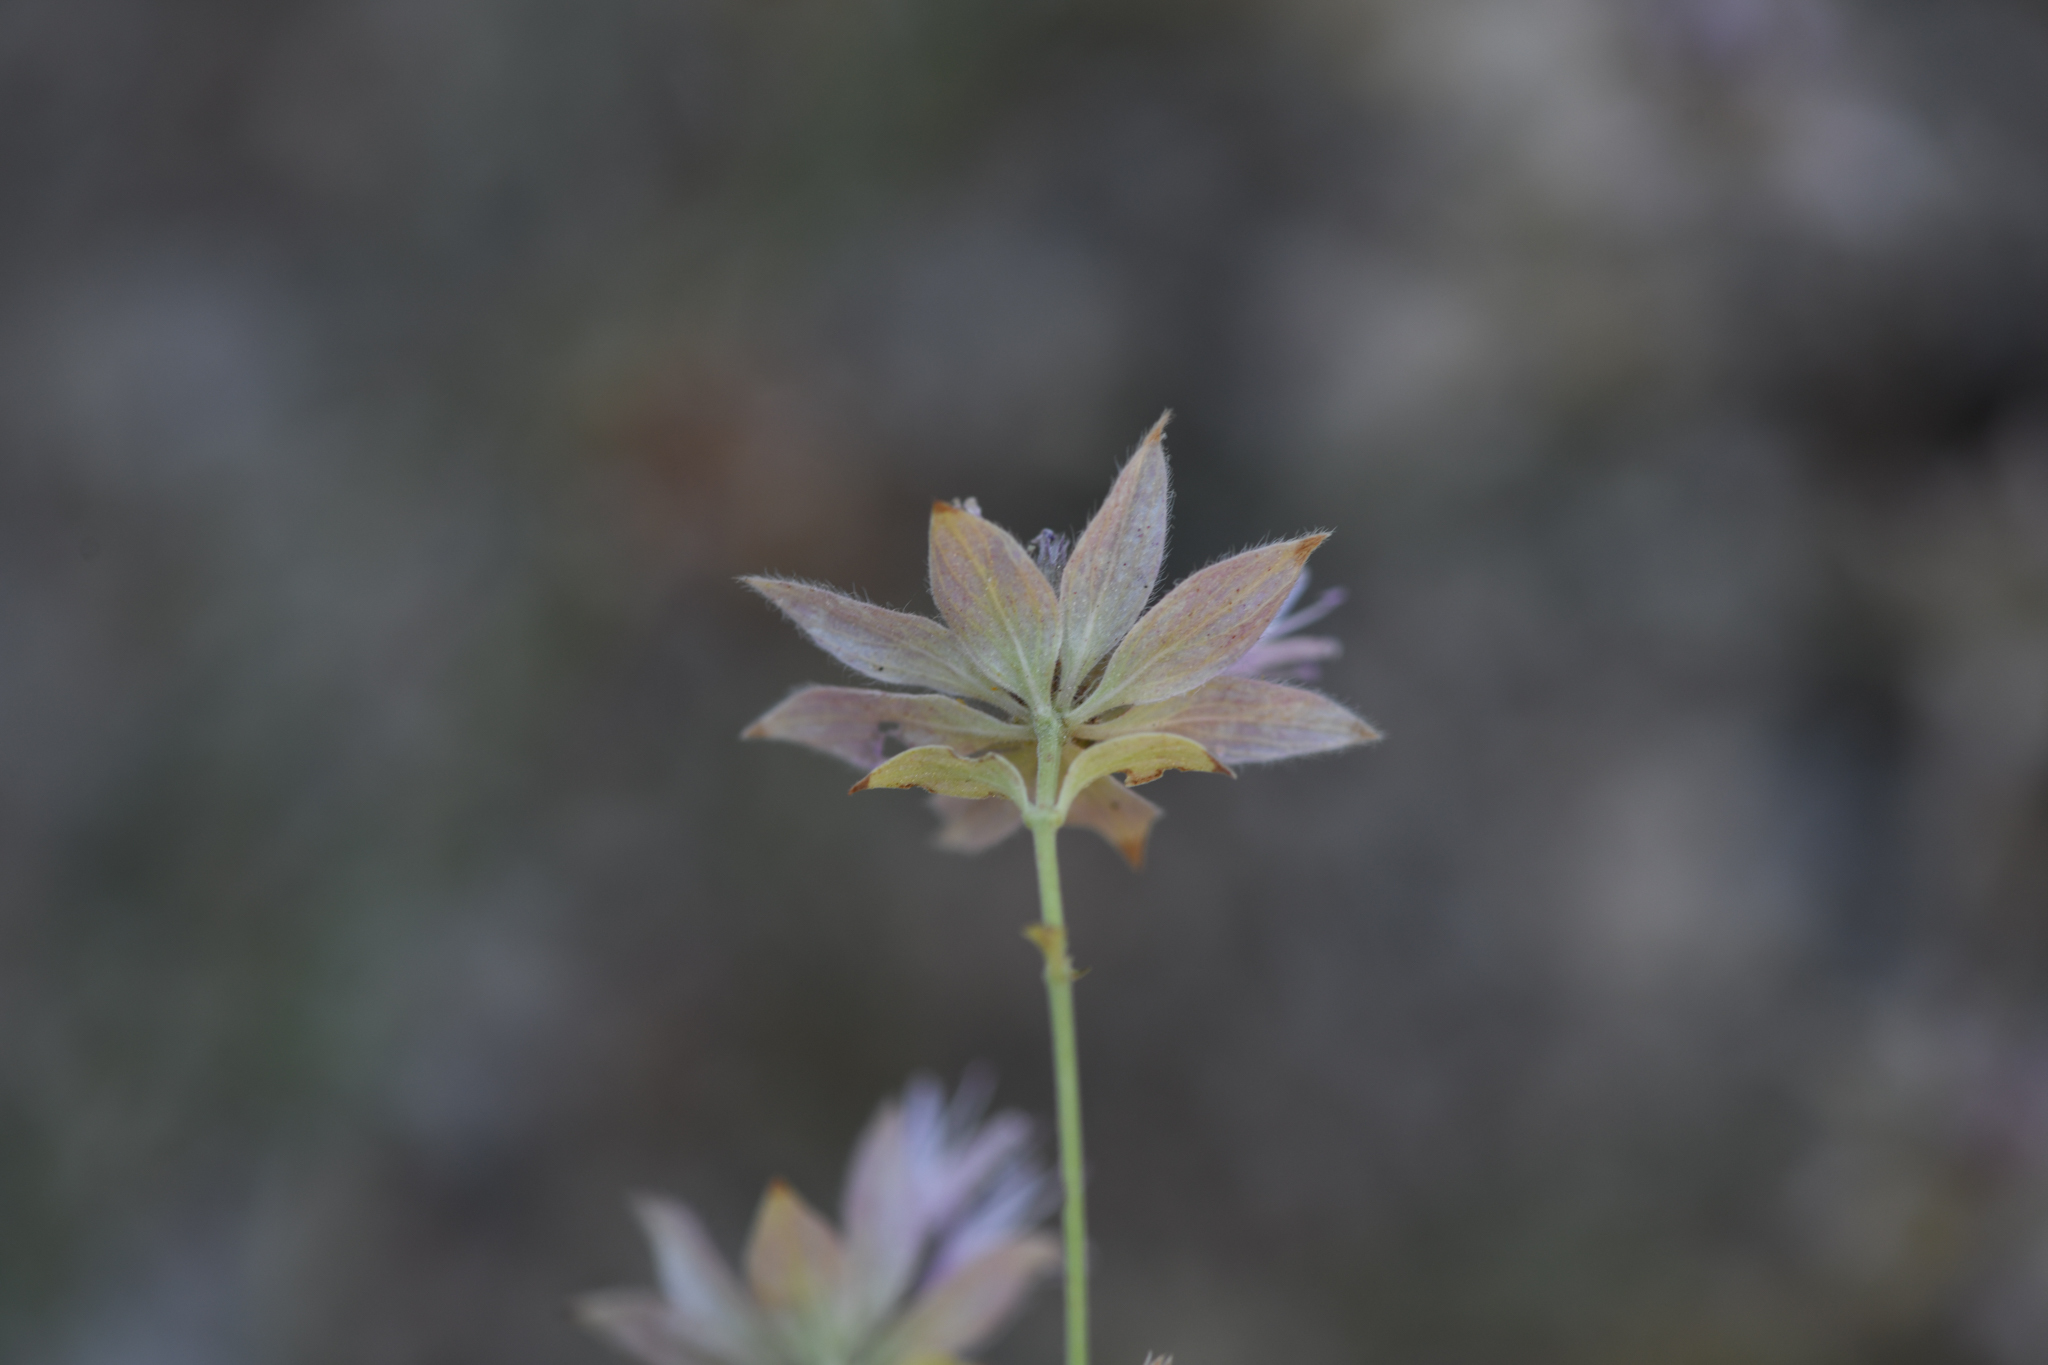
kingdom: Plantae
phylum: Tracheophyta
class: Magnoliopsida
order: Lamiales
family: Lamiaceae
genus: Monardella
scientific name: Monardella mojavensis
